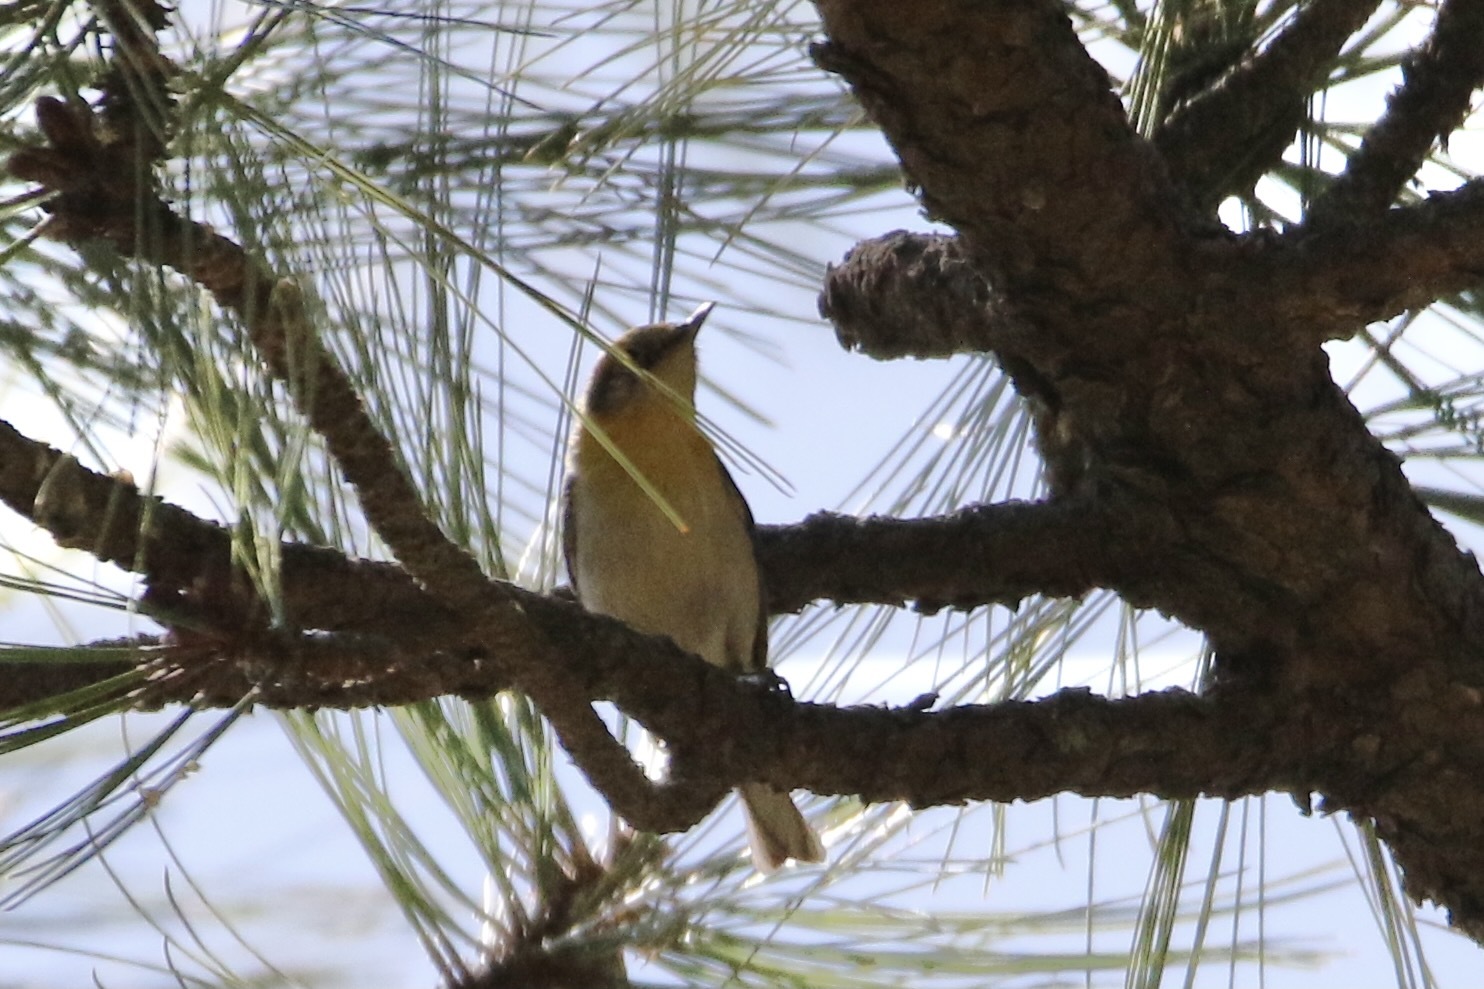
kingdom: Animalia
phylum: Chordata
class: Aves
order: Passeriformes
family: Peucedramidae
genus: Peucedramus
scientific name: Peucedramus taeniatus
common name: Olive warbler
